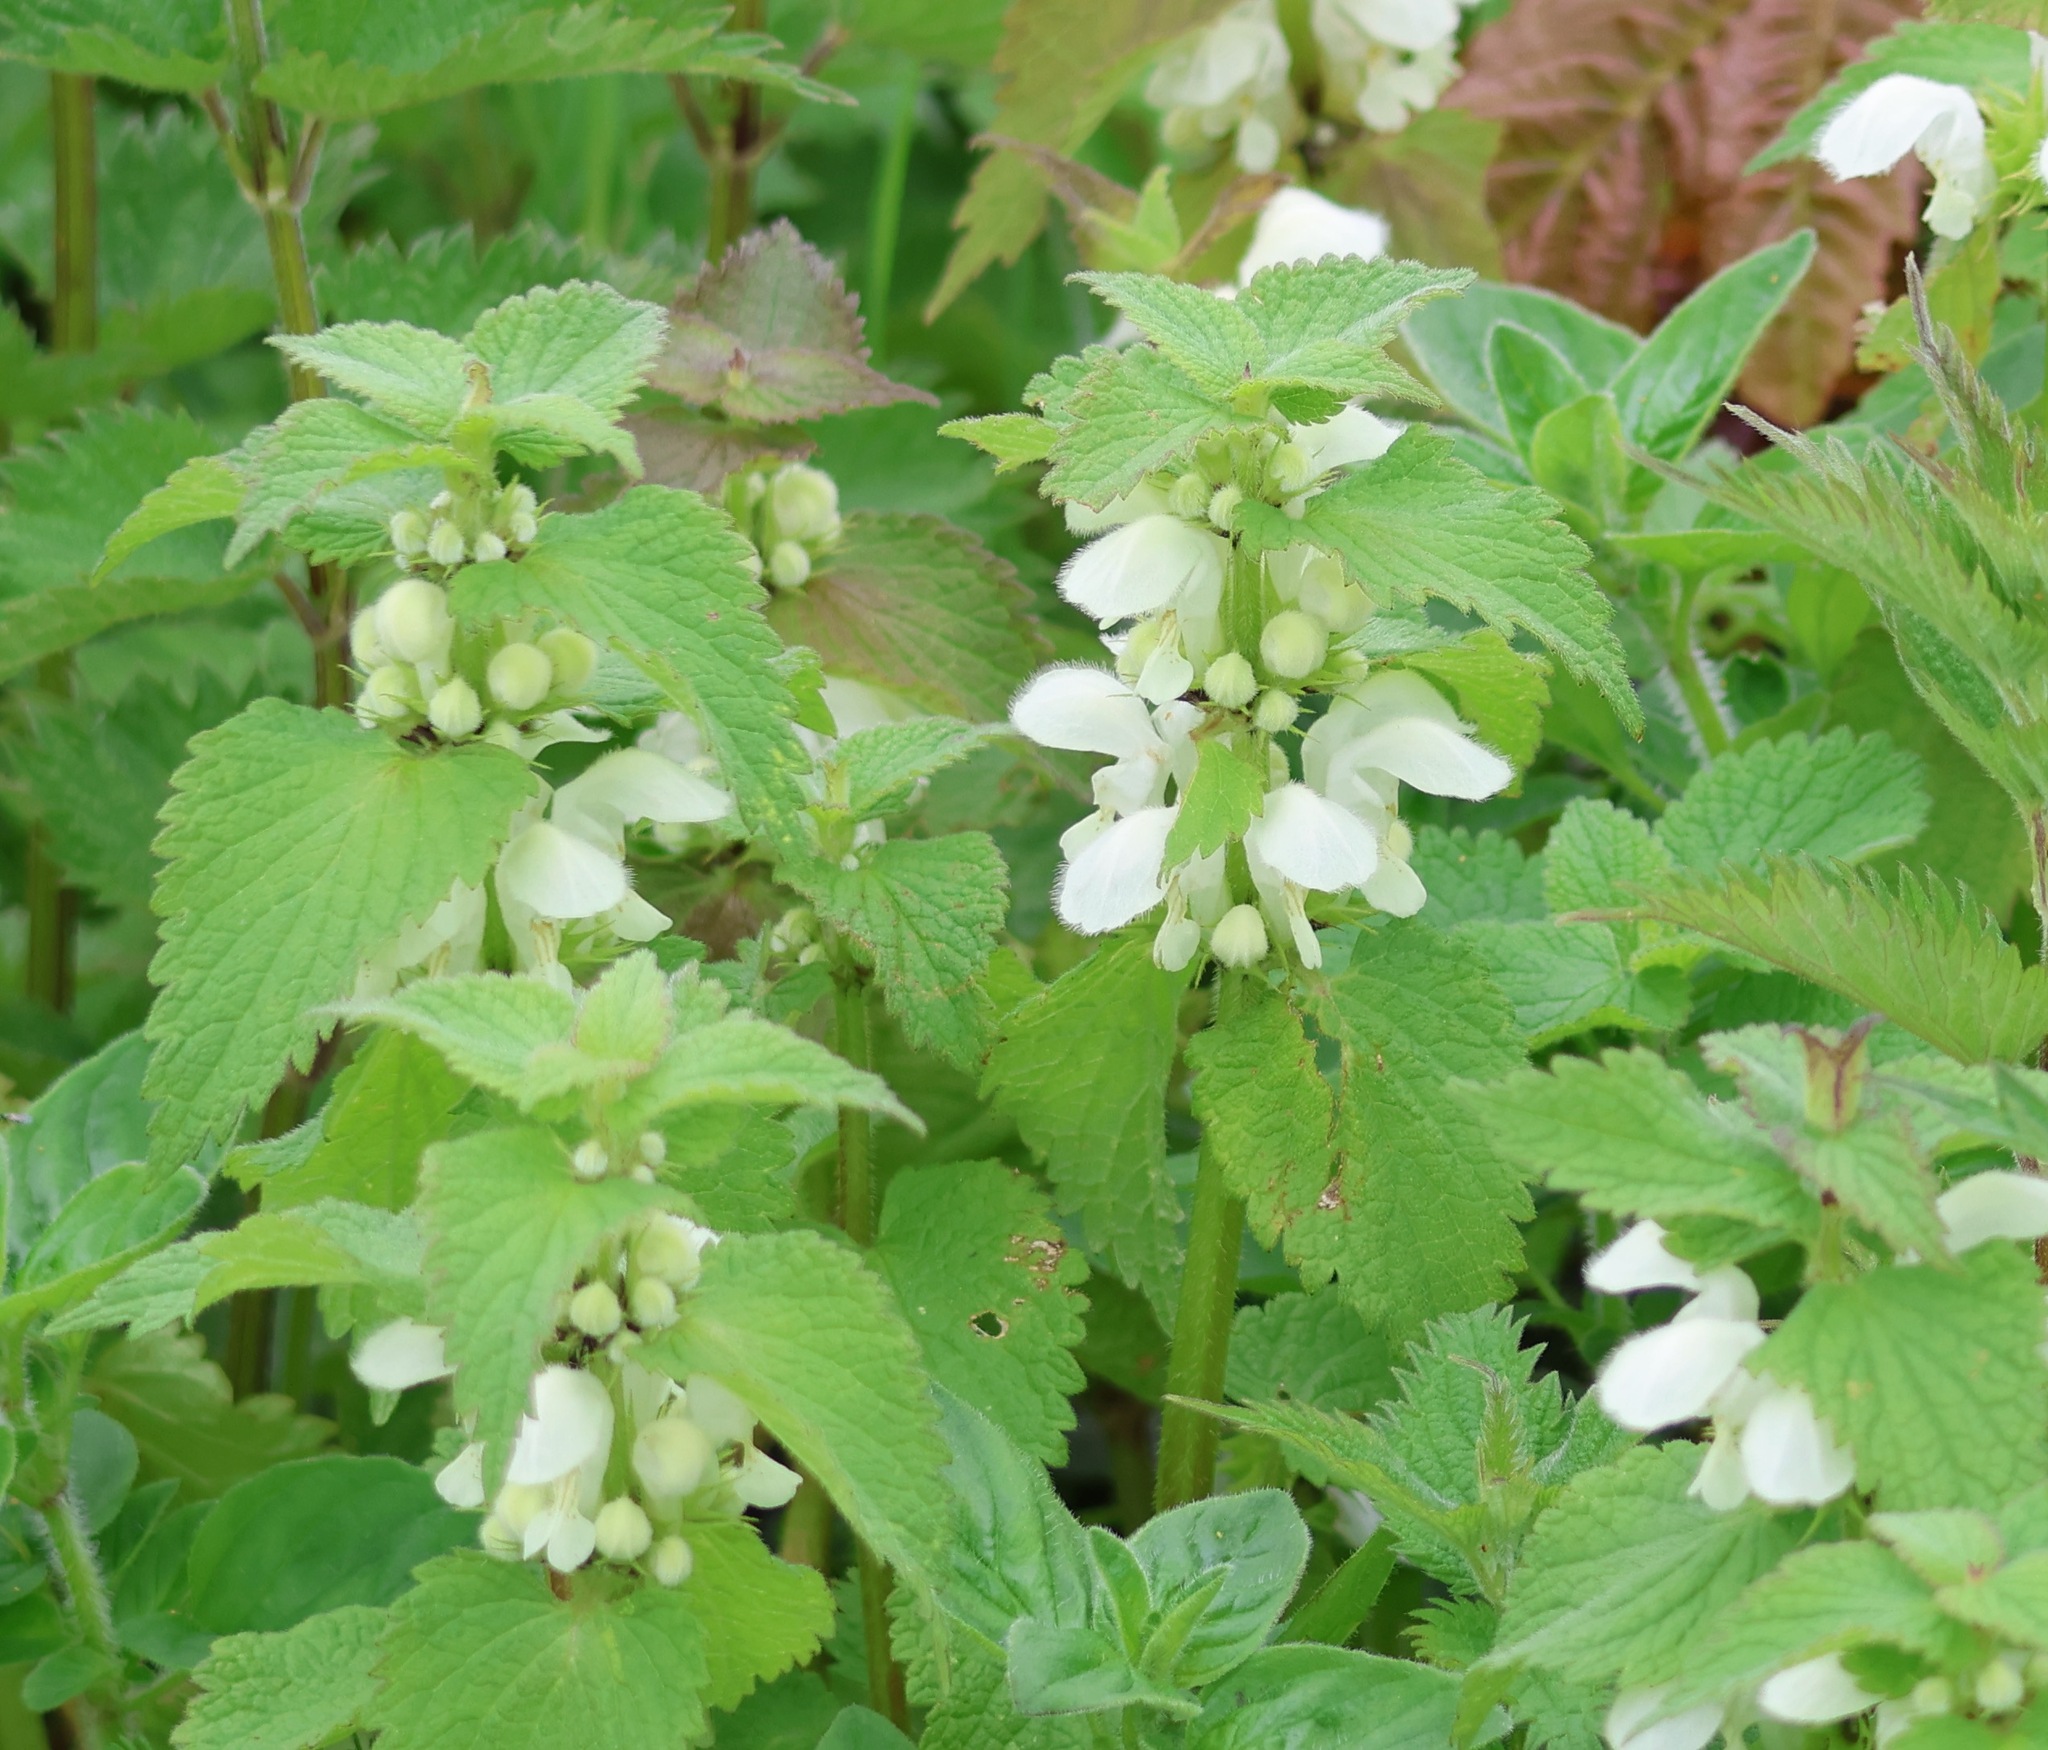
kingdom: Plantae
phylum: Tracheophyta
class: Magnoliopsida
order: Lamiales
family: Lamiaceae
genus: Lamium
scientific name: Lamium album
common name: White dead-nettle
